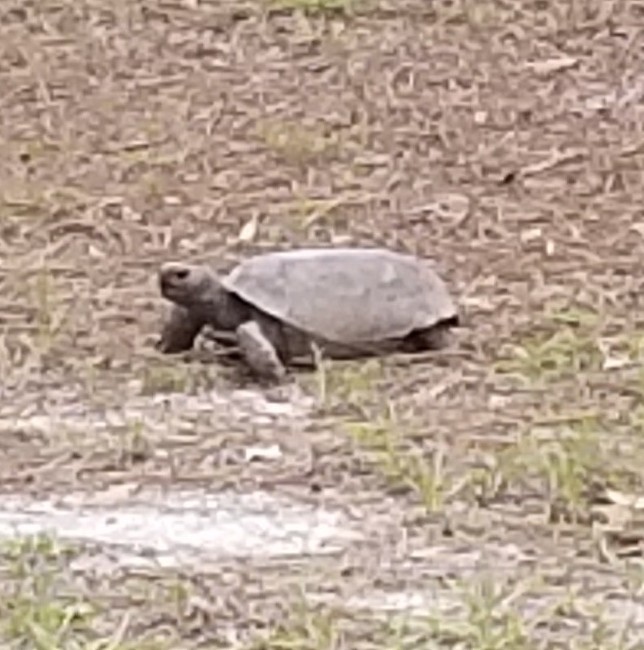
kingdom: Animalia
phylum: Chordata
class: Testudines
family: Testudinidae
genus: Gopherus
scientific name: Gopherus polyphemus
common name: Florida gopher tortoise
